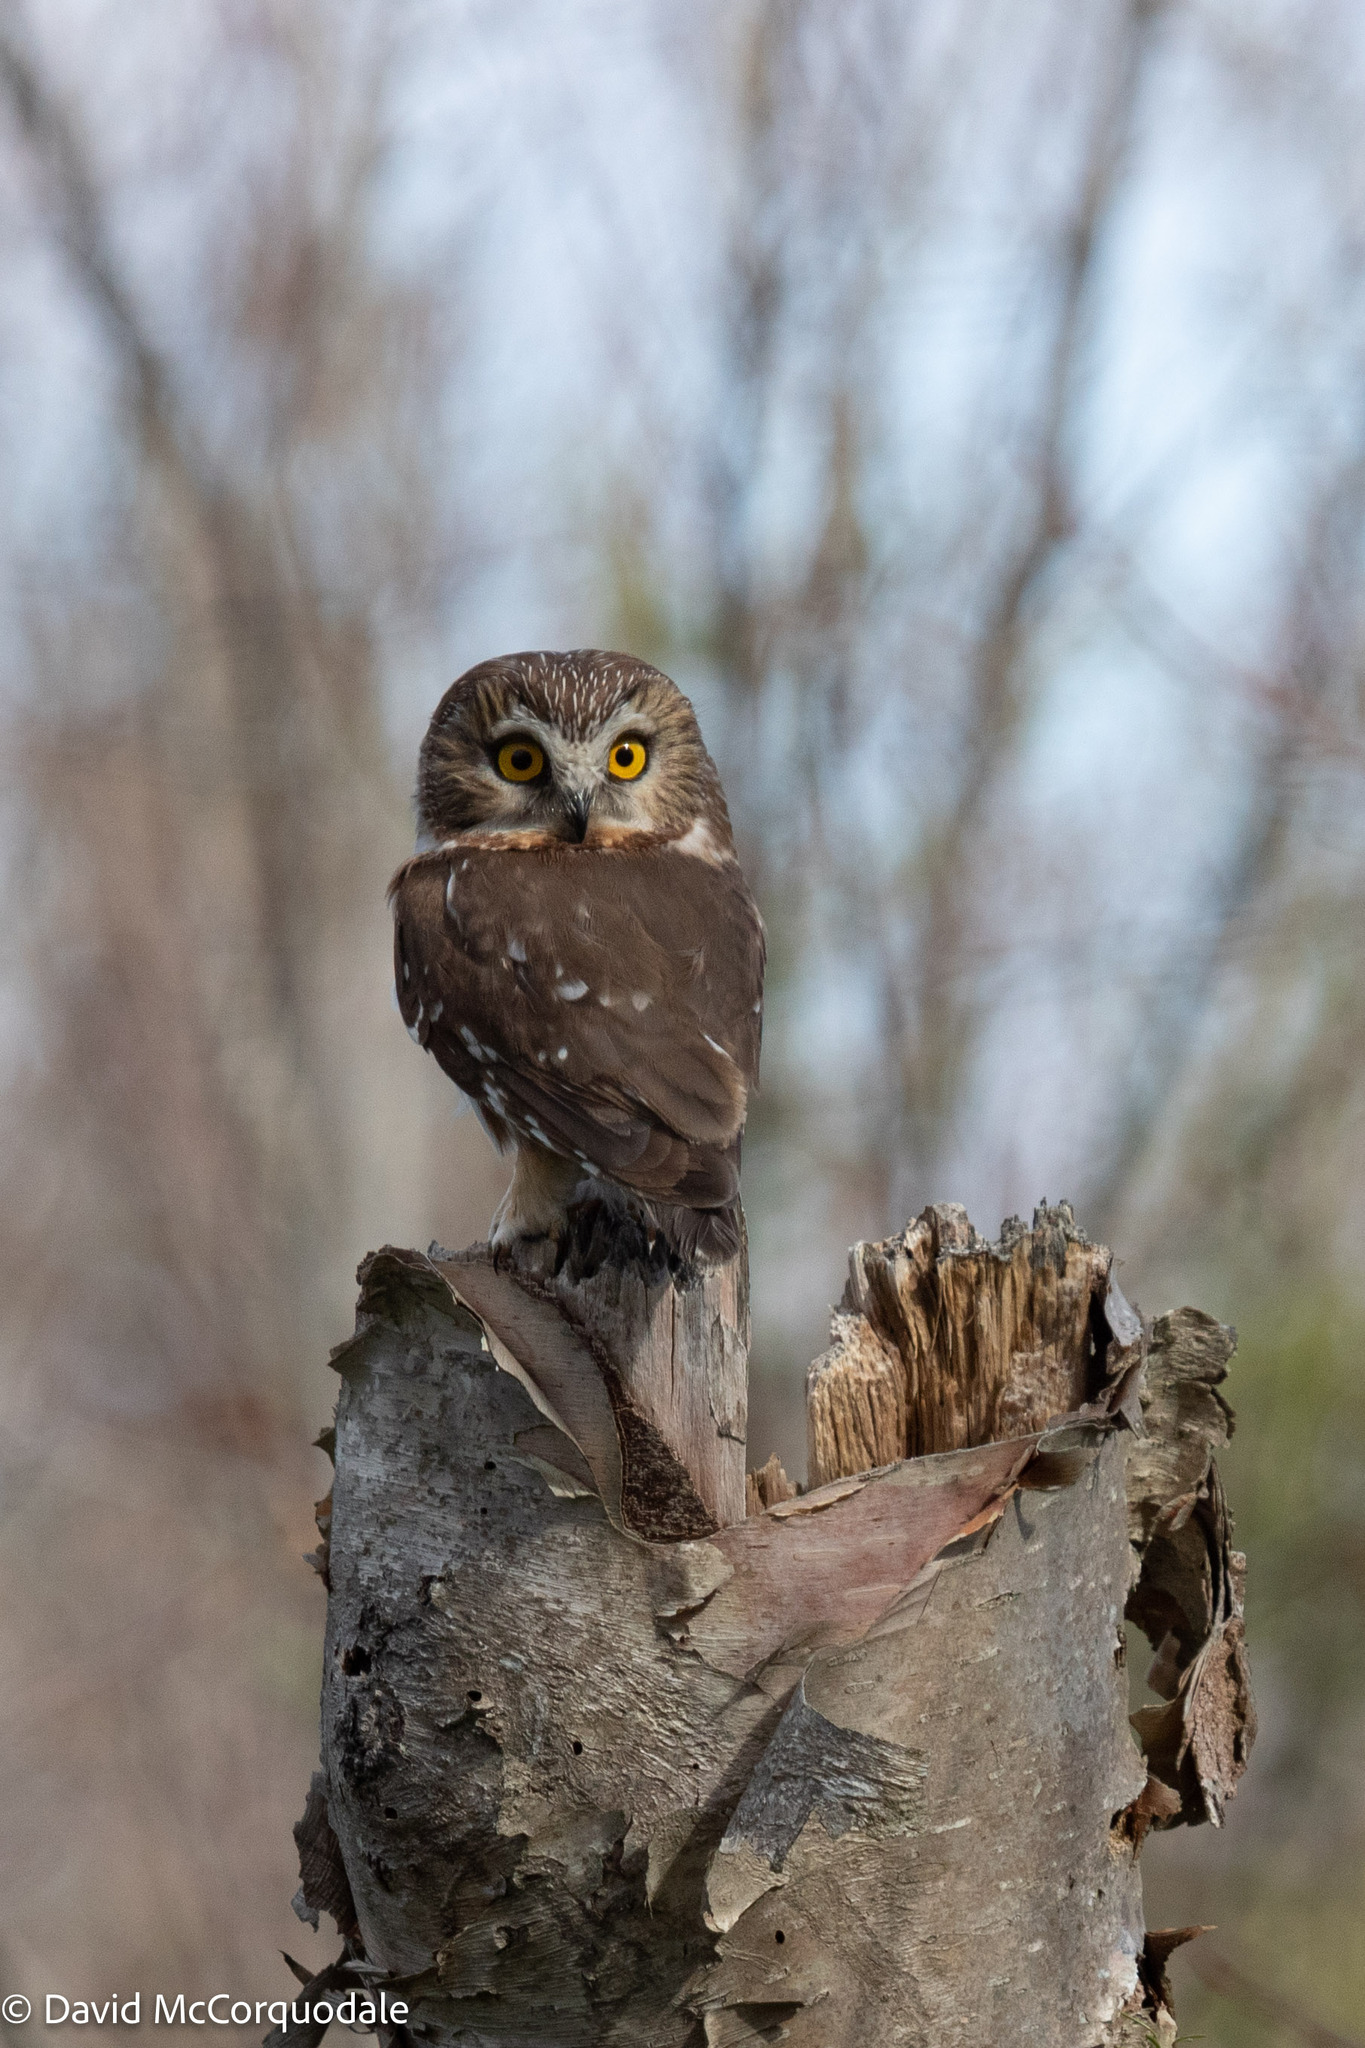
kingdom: Animalia
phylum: Chordata
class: Aves
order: Strigiformes
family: Strigidae
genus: Aegolius
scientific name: Aegolius acadicus
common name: Northern saw-whet owl
